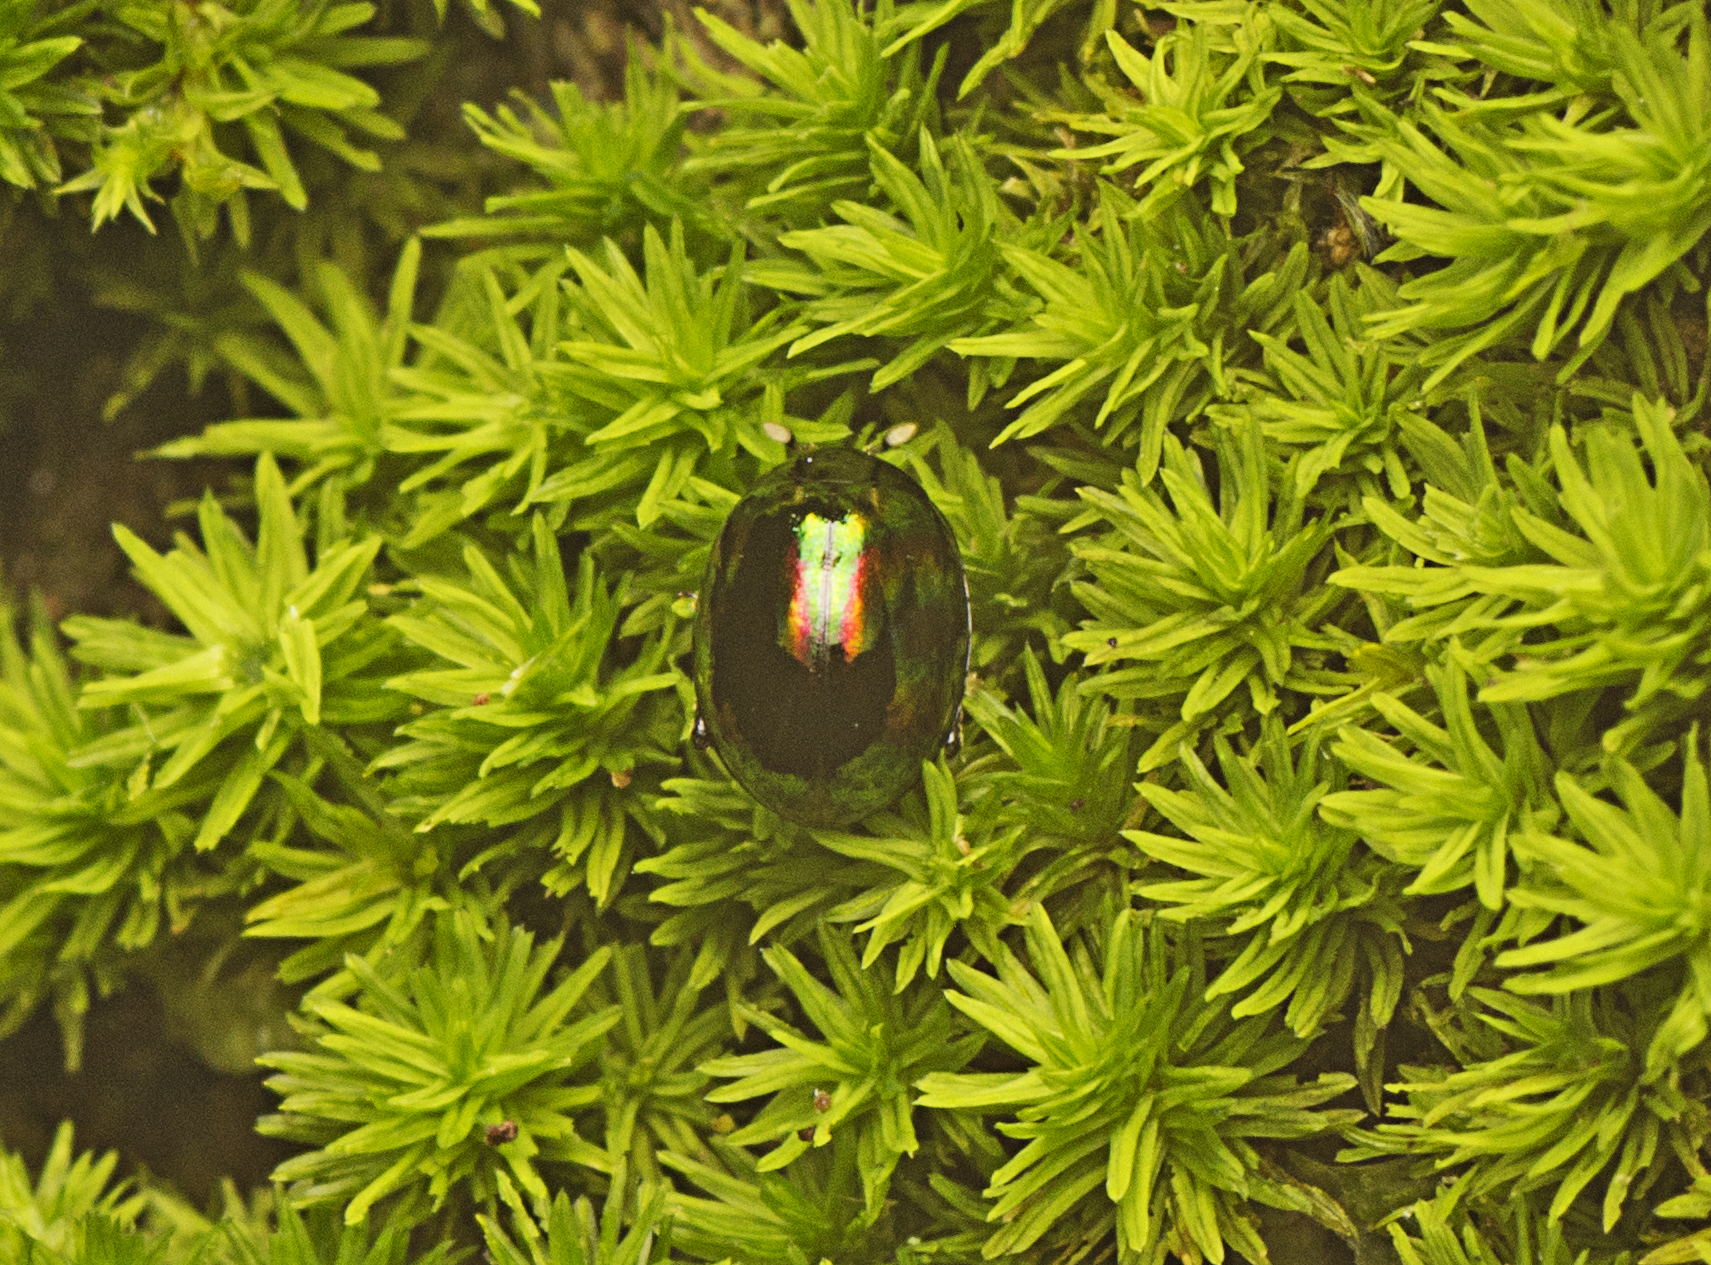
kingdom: Animalia
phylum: Arthropoda
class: Insecta
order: Coleoptera
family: Chrysomelidae
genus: Ivalia
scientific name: Ivalia
